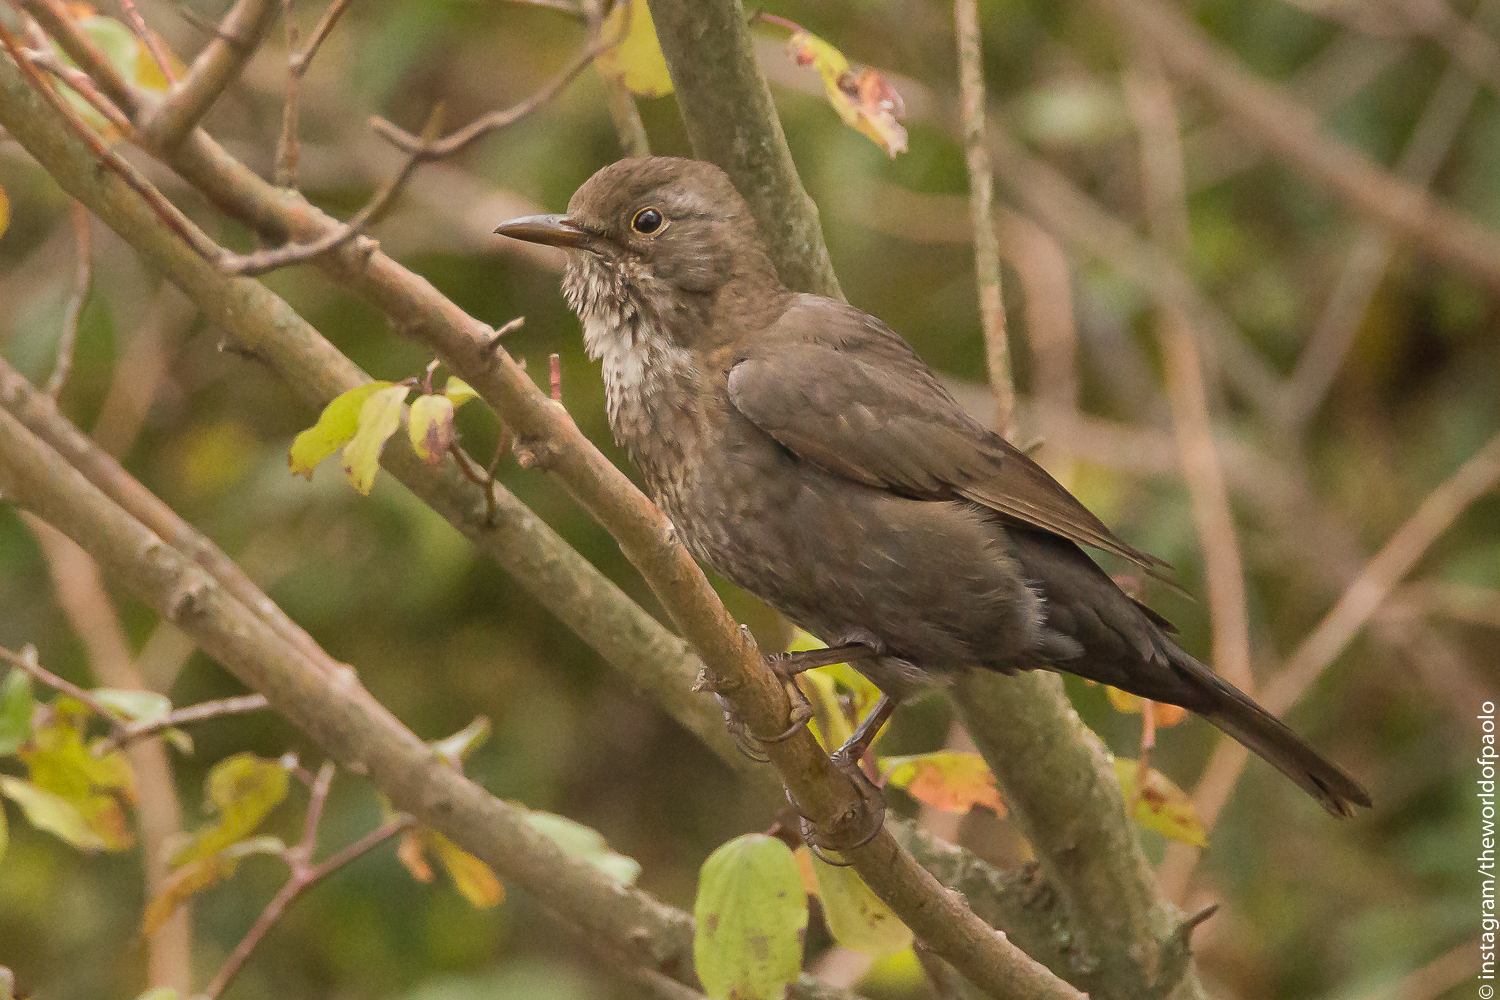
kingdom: Animalia
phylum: Chordata
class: Aves
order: Passeriformes
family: Turdidae
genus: Turdus
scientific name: Turdus merula
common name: Common blackbird
